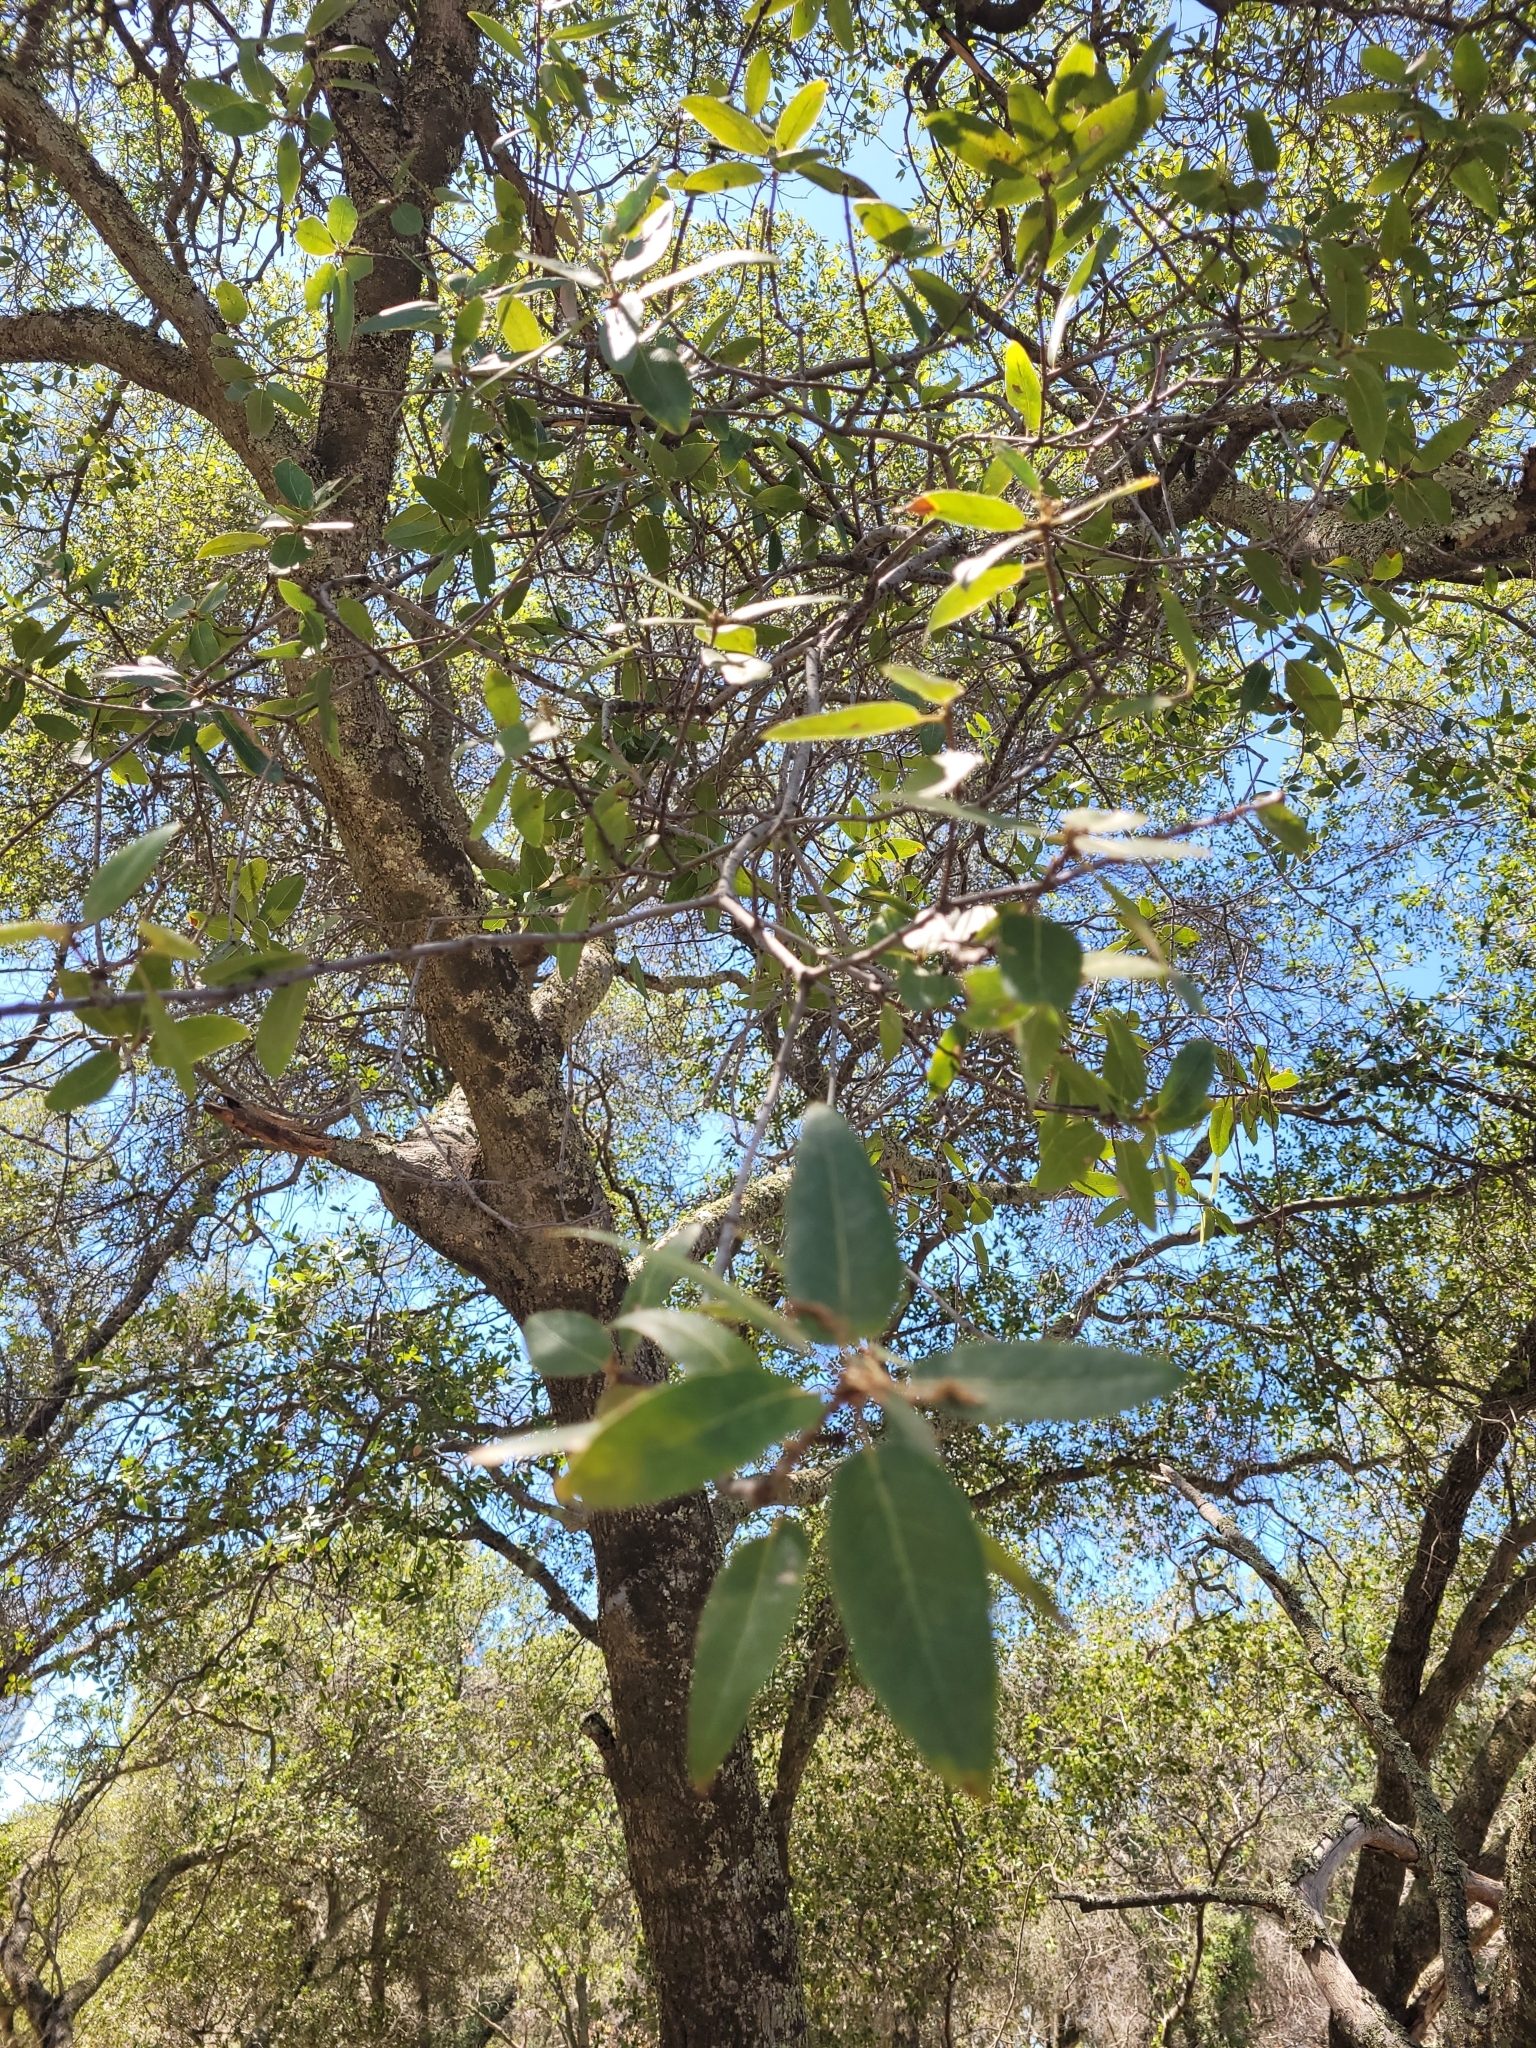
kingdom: Plantae
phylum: Tracheophyta
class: Magnoliopsida
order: Fagales
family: Fagaceae
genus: Quercus
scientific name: Quercus wislizeni
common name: Interior live oak
